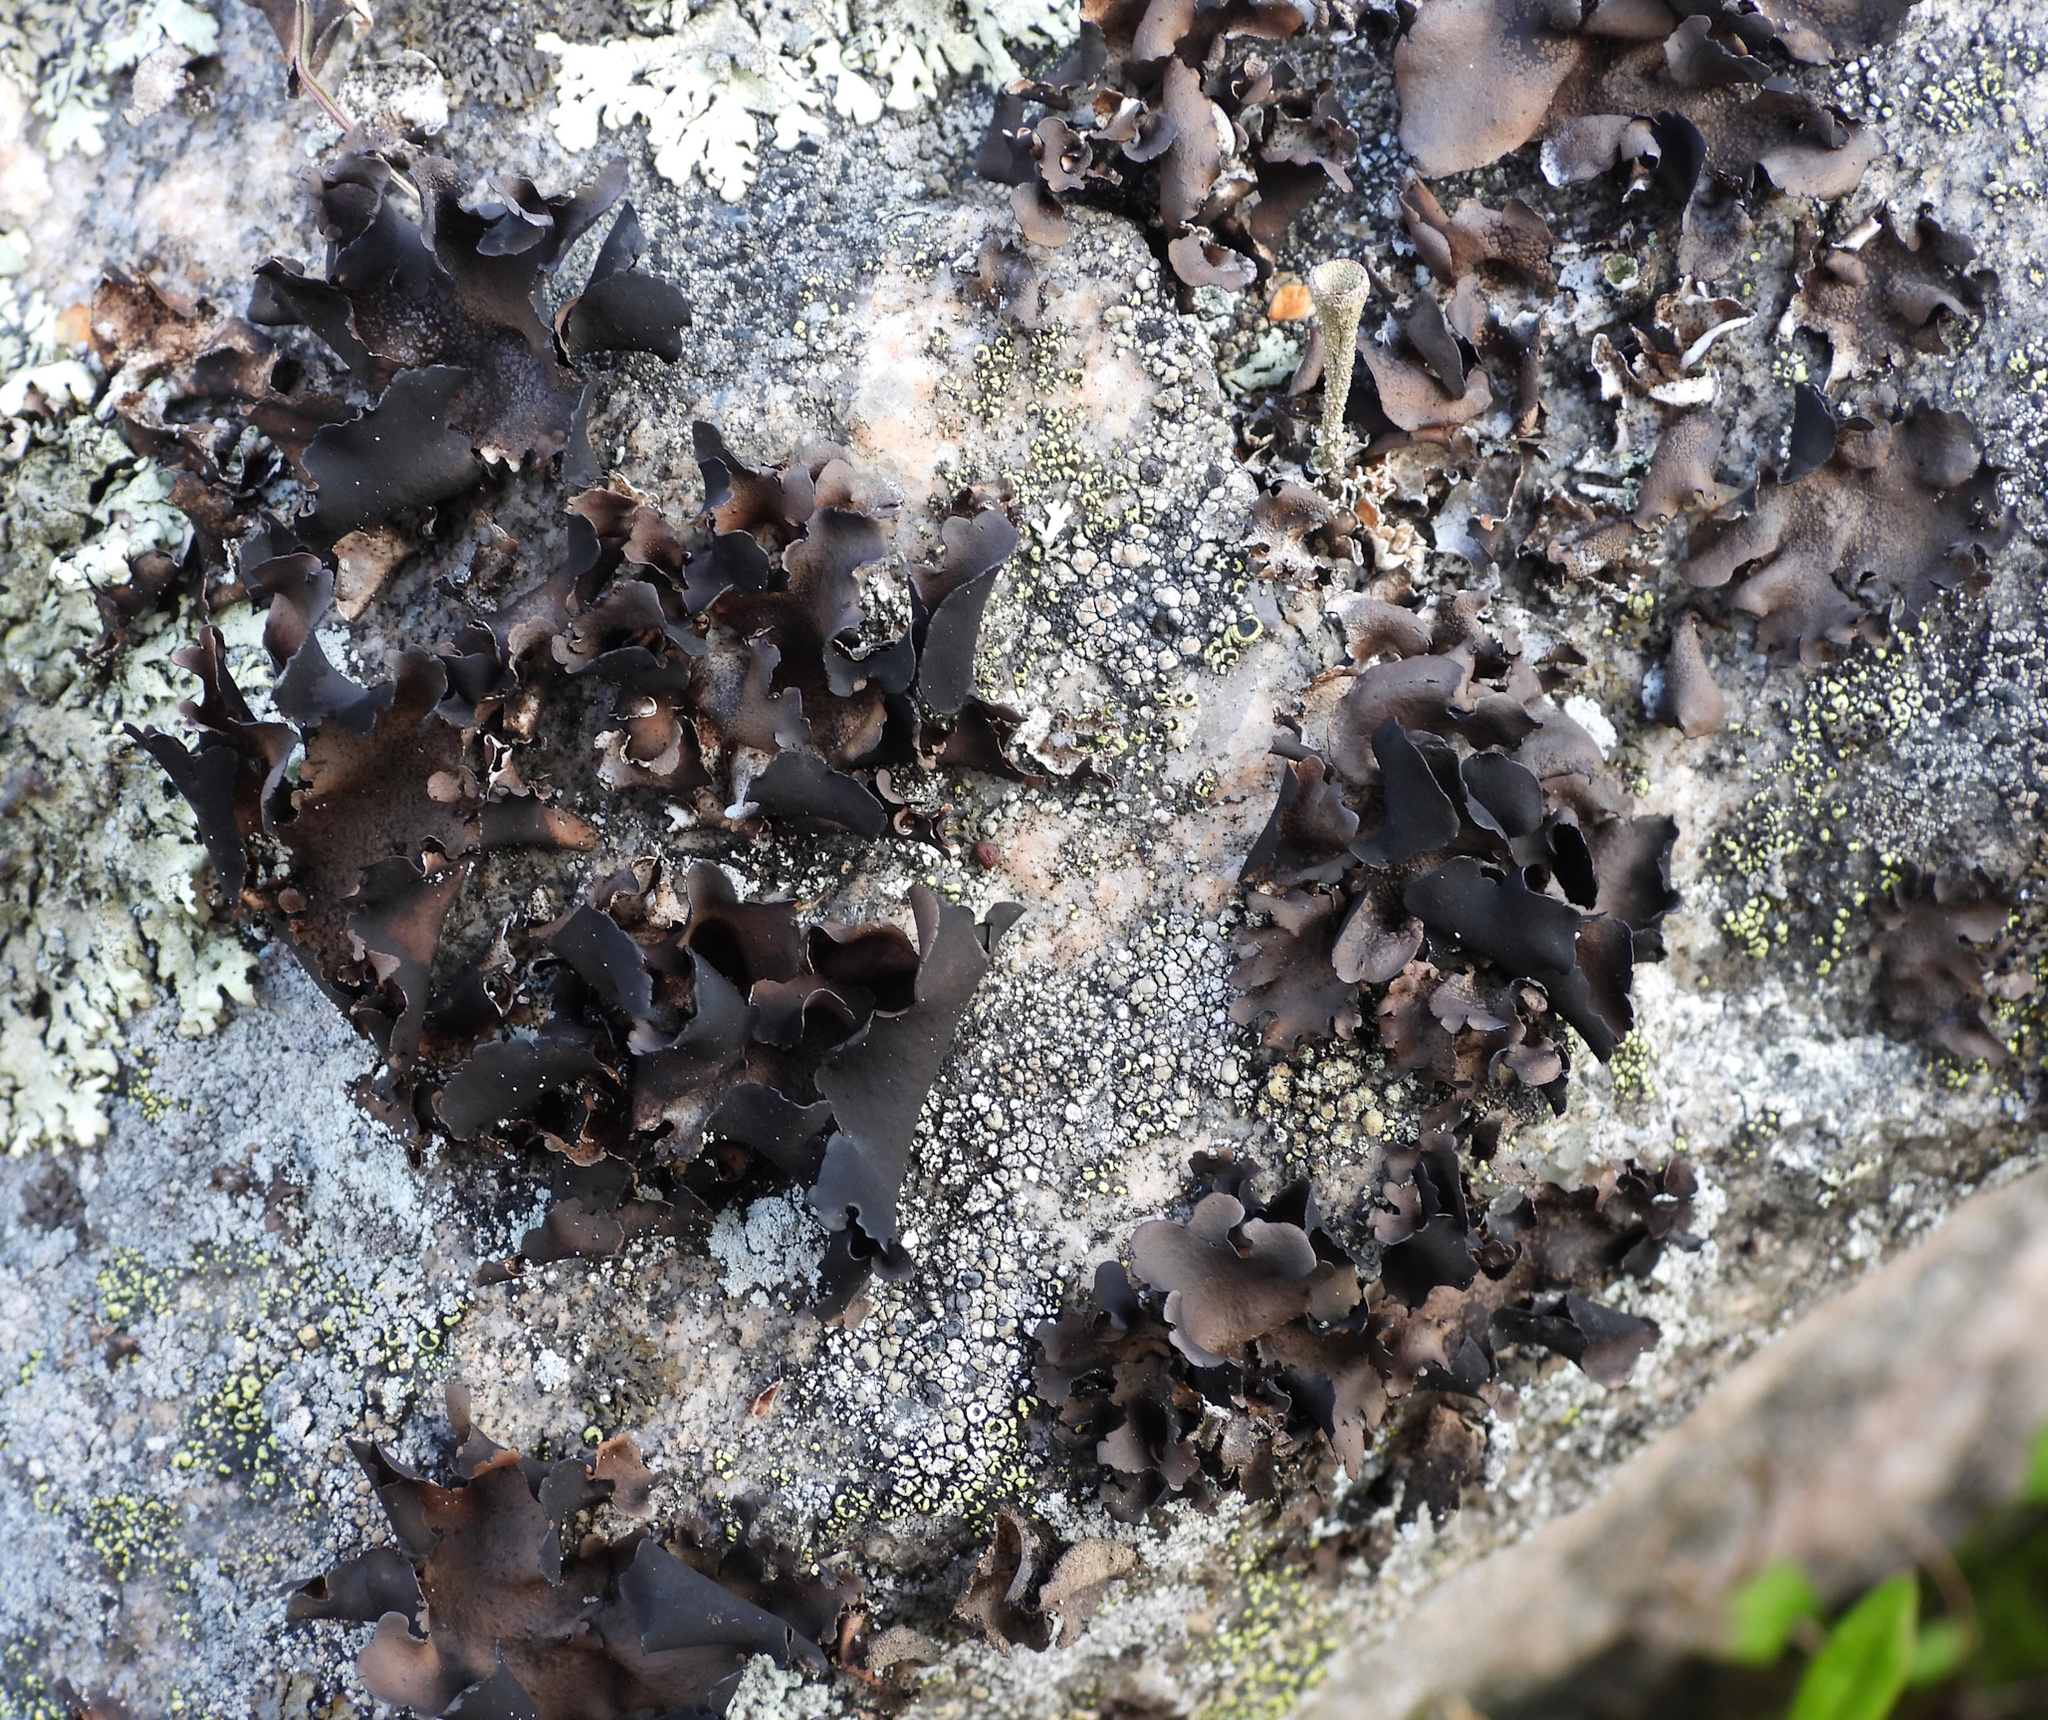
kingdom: Fungi
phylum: Ascomycota
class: Lecanoromycetes
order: Umbilicariales
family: Umbilicariaceae
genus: Umbilicaria
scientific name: Umbilicaria polyphylla
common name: Petalled rocktripe lichen
